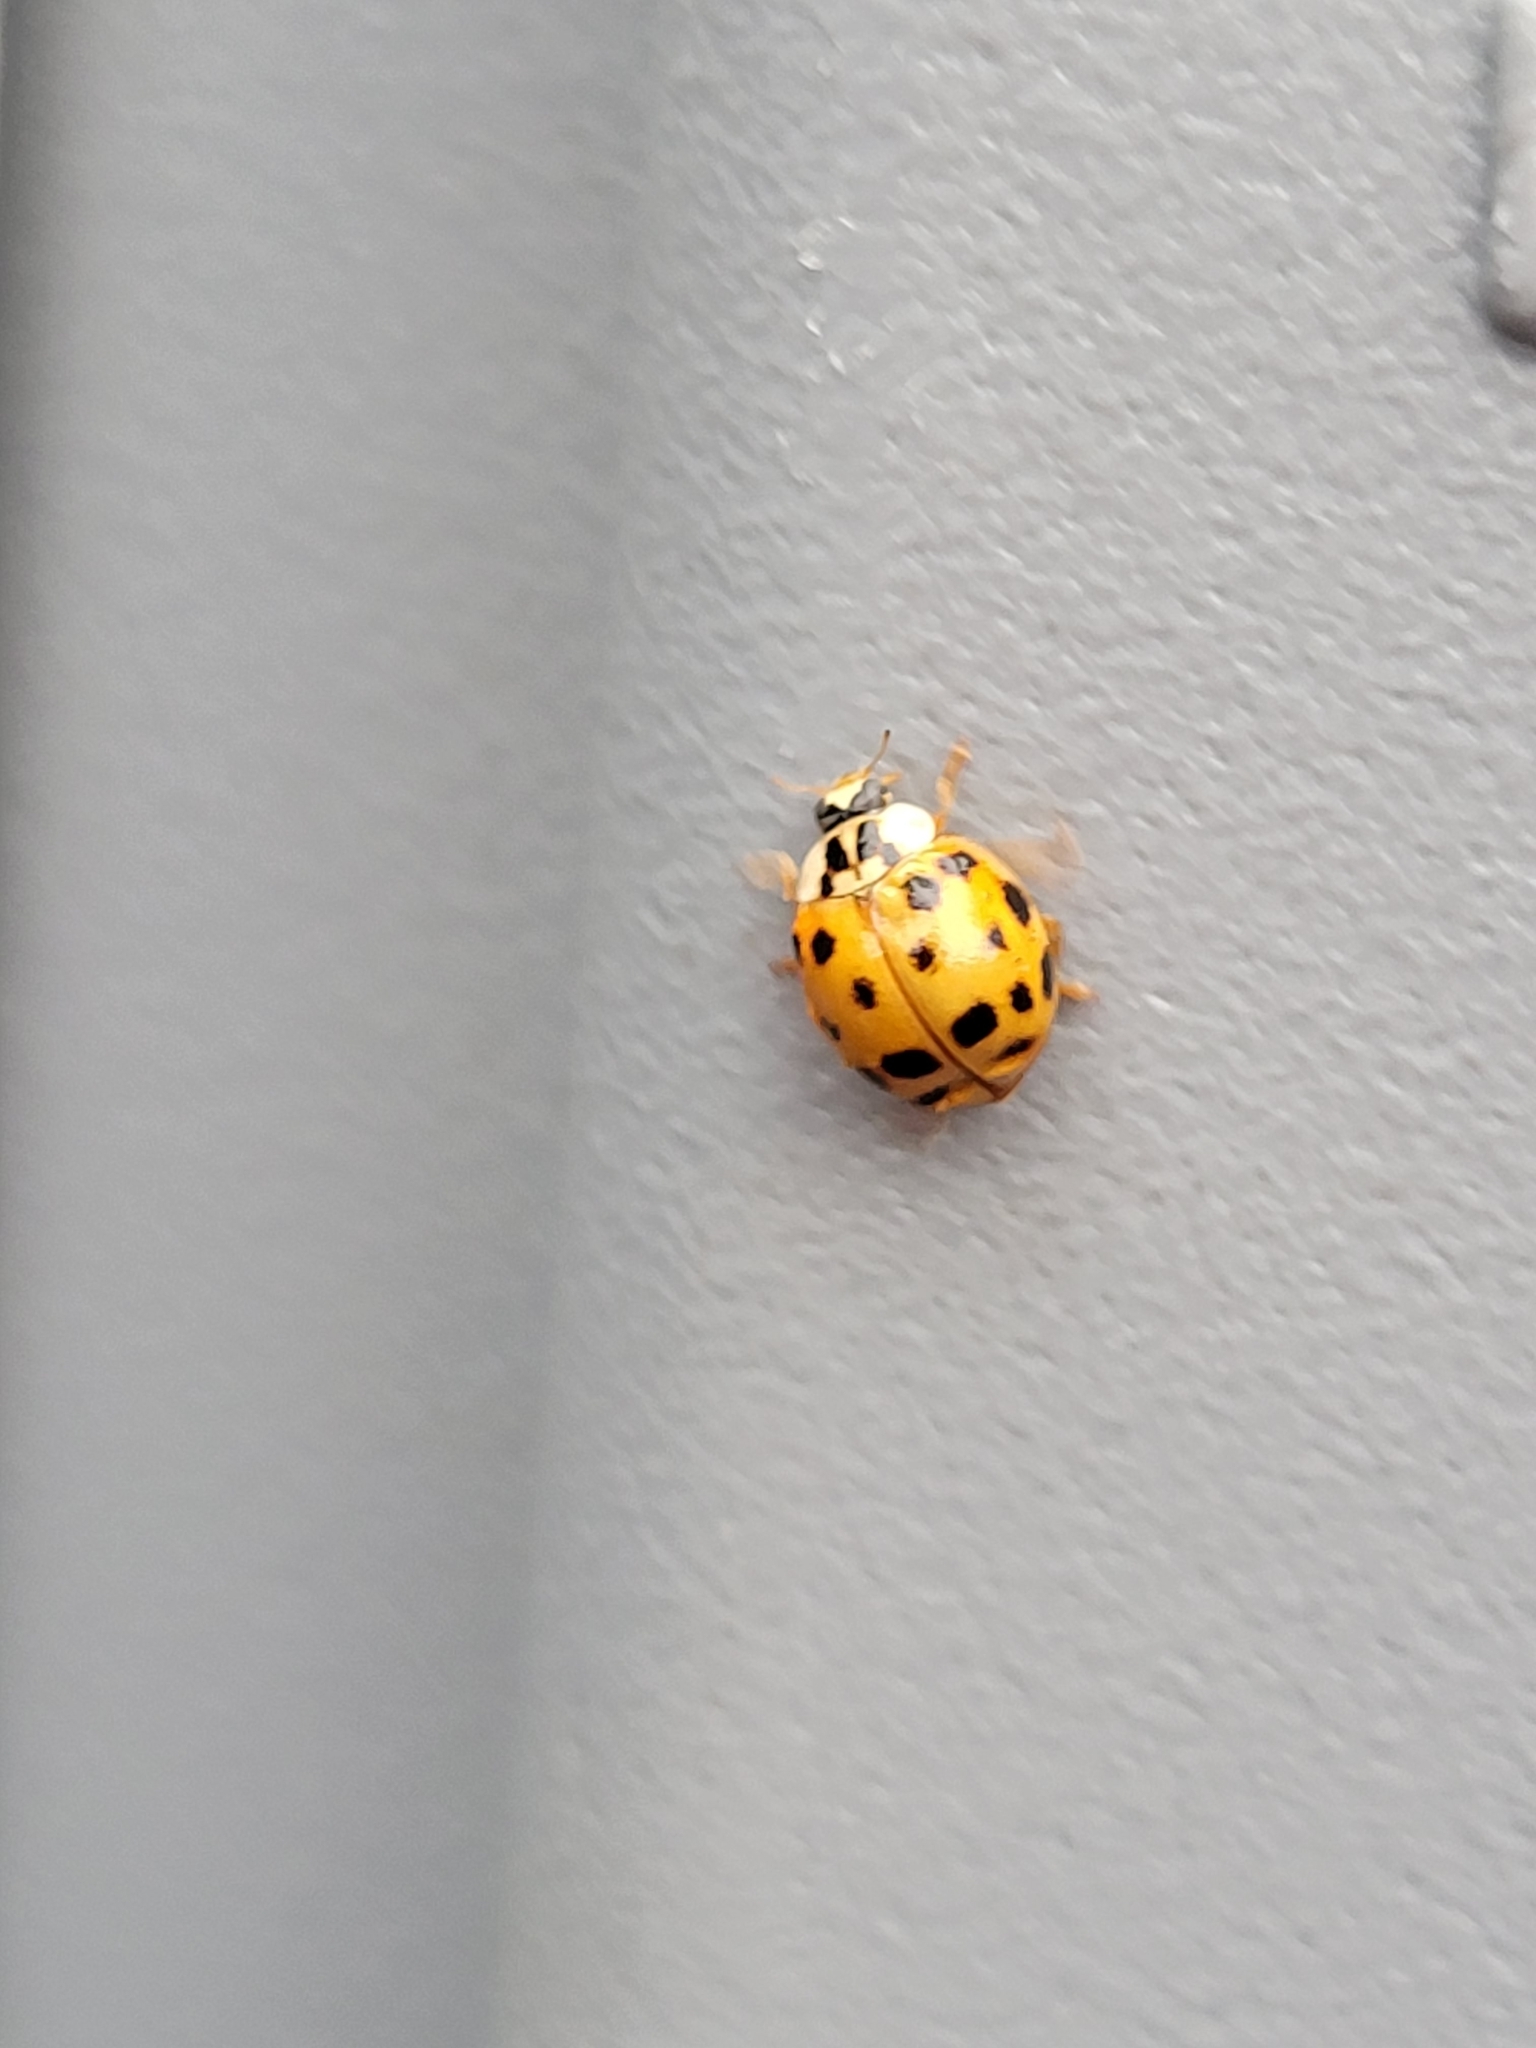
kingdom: Animalia
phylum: Arthropoda
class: Insecta
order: Coleoptera
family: Coccinellidae
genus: Harmonia
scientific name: Harmonia axyridis
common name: Harlequin ladybird
